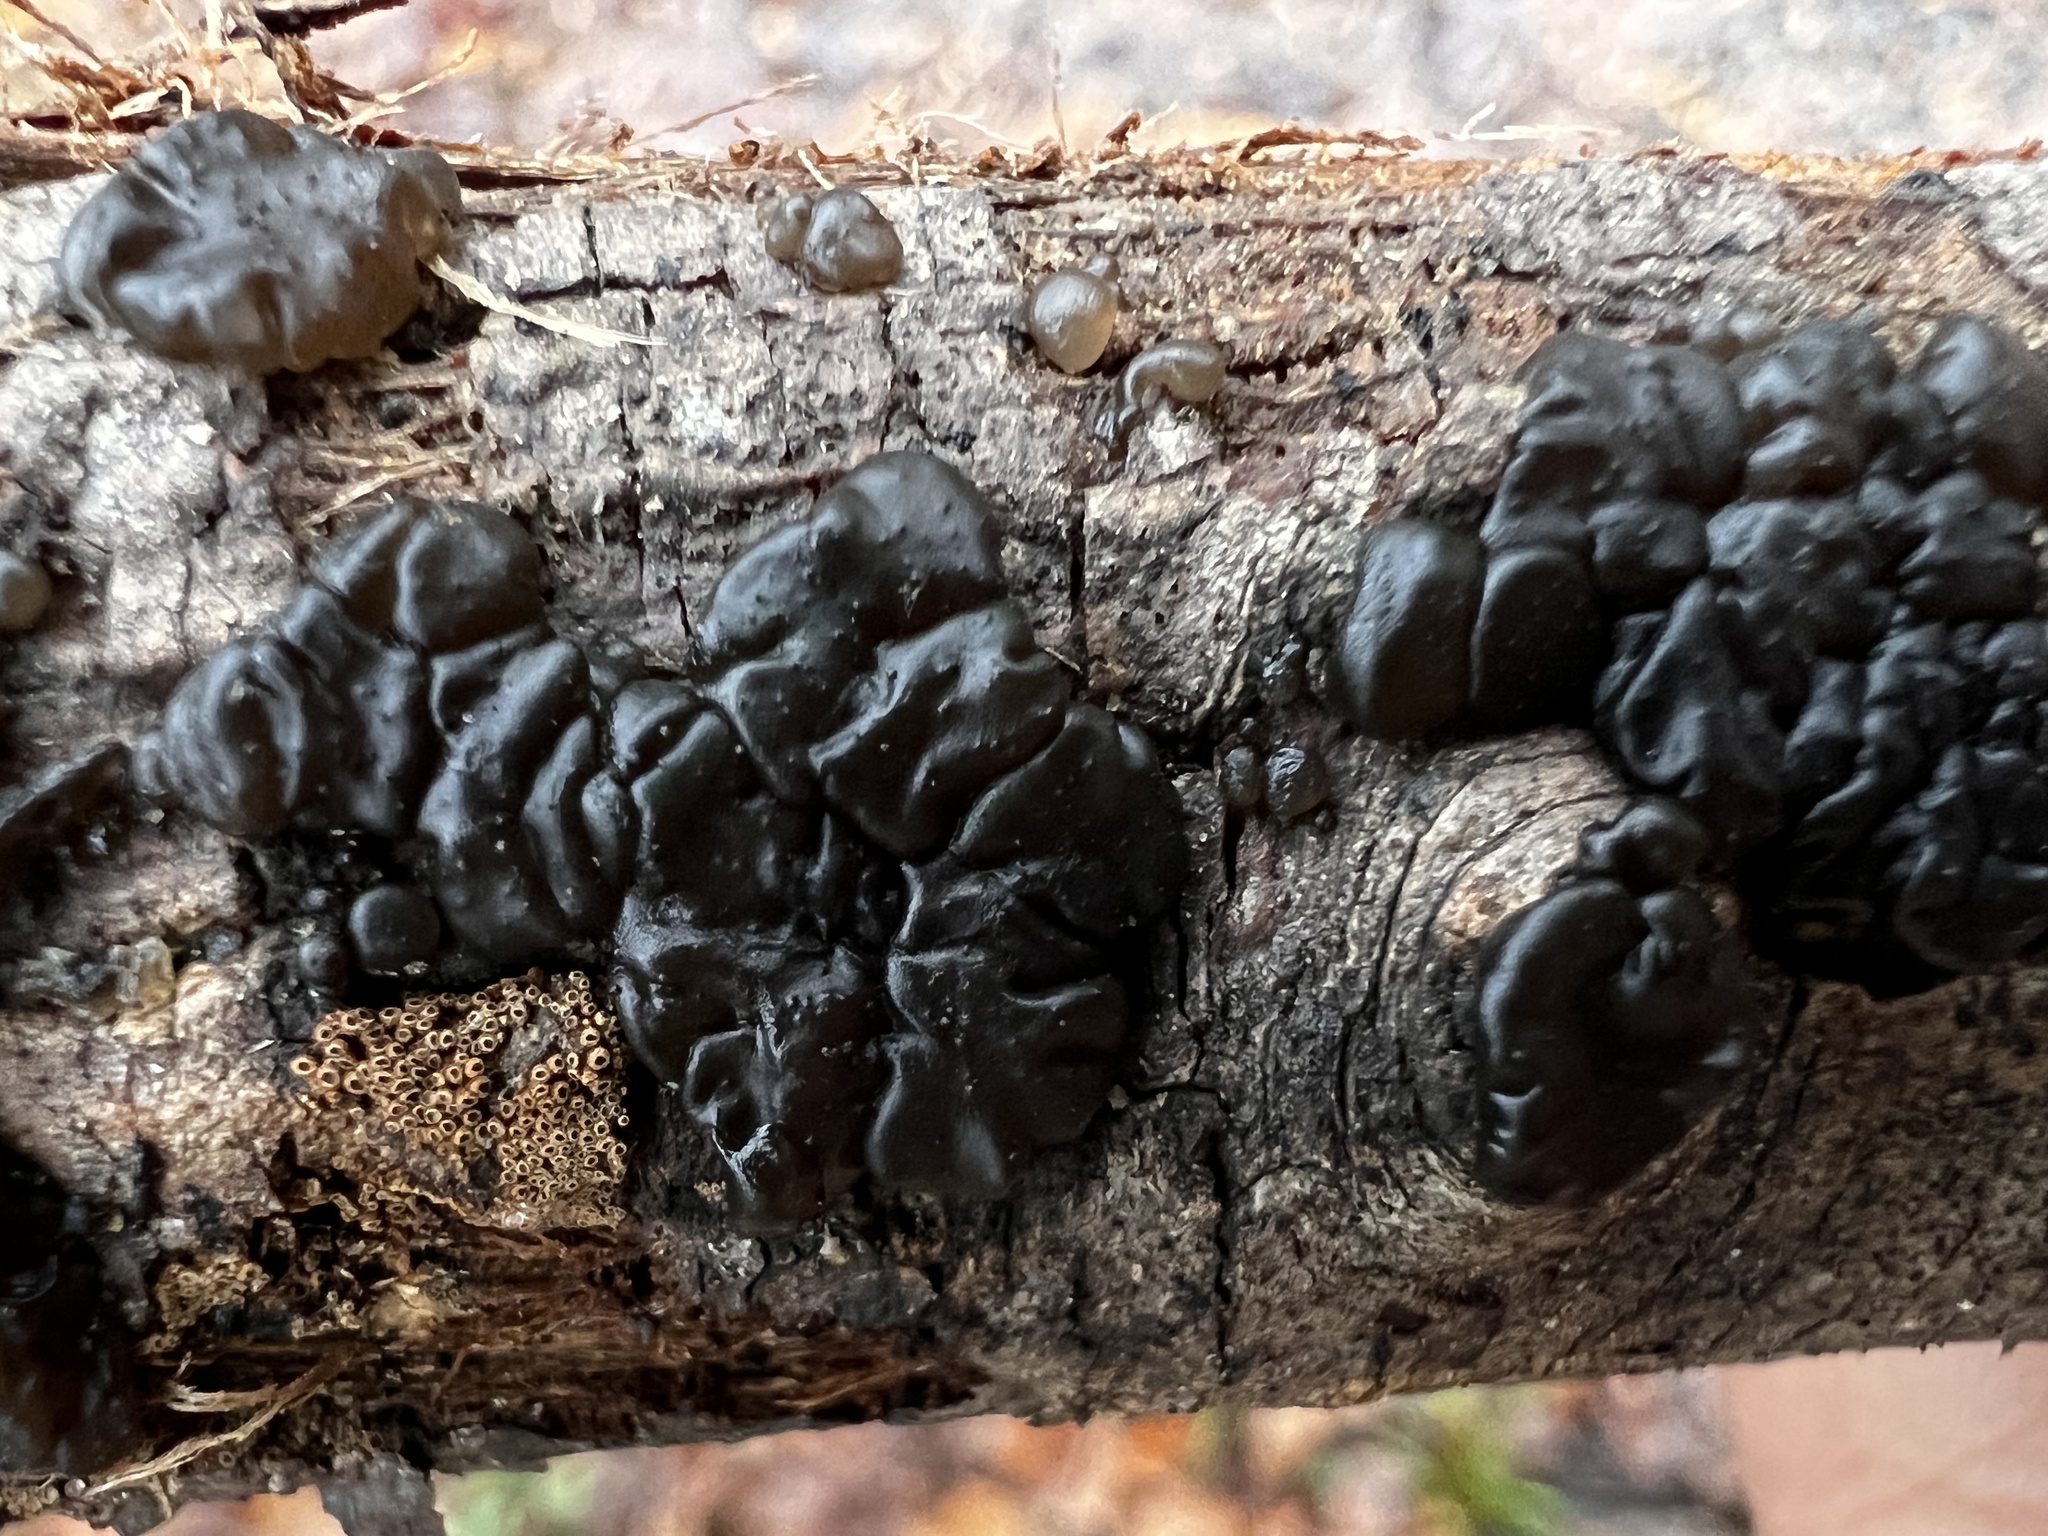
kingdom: Fungi
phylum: Basidiomycota
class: Agaricomycetes
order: Auriculariales
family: Auriculariaceae
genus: Exidia
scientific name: Exidia glandulosa
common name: Witches' butter
